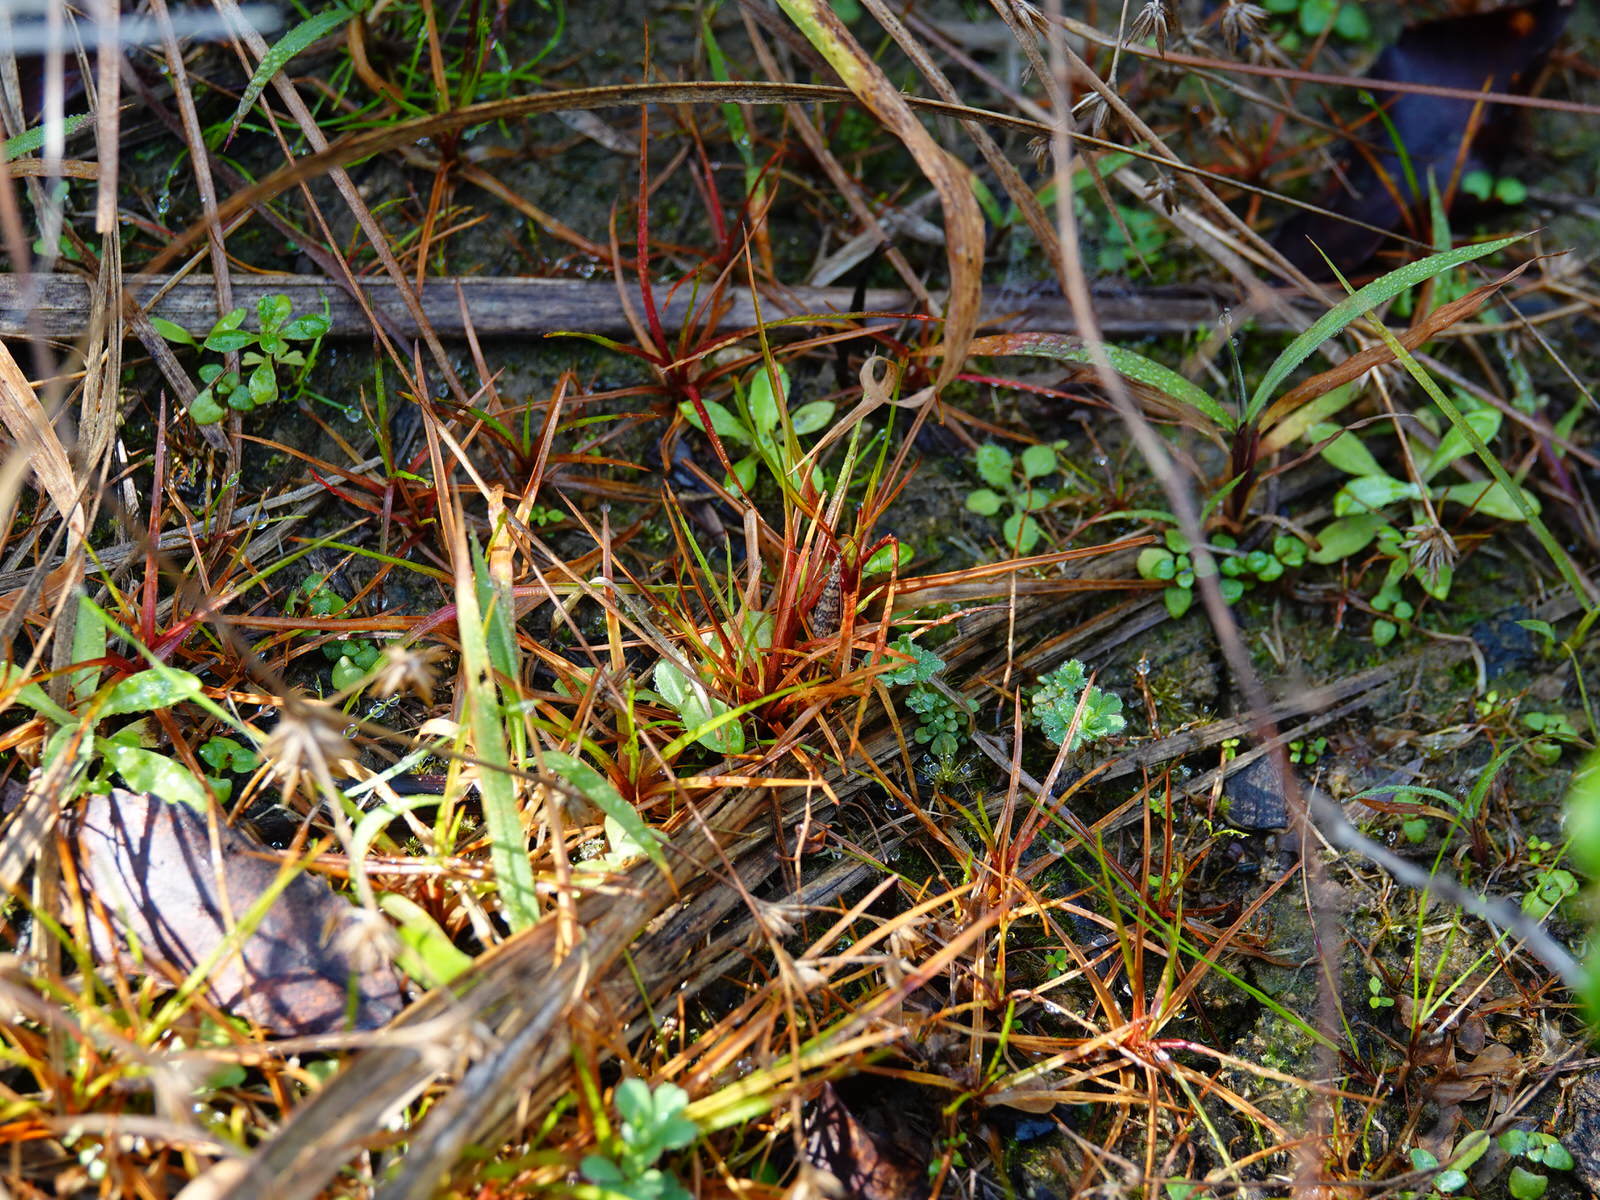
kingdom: Animalia
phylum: Arthropoda
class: Insecta
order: Diptera
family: Limoniidae
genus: Discobola
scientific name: Discobola gibberina
